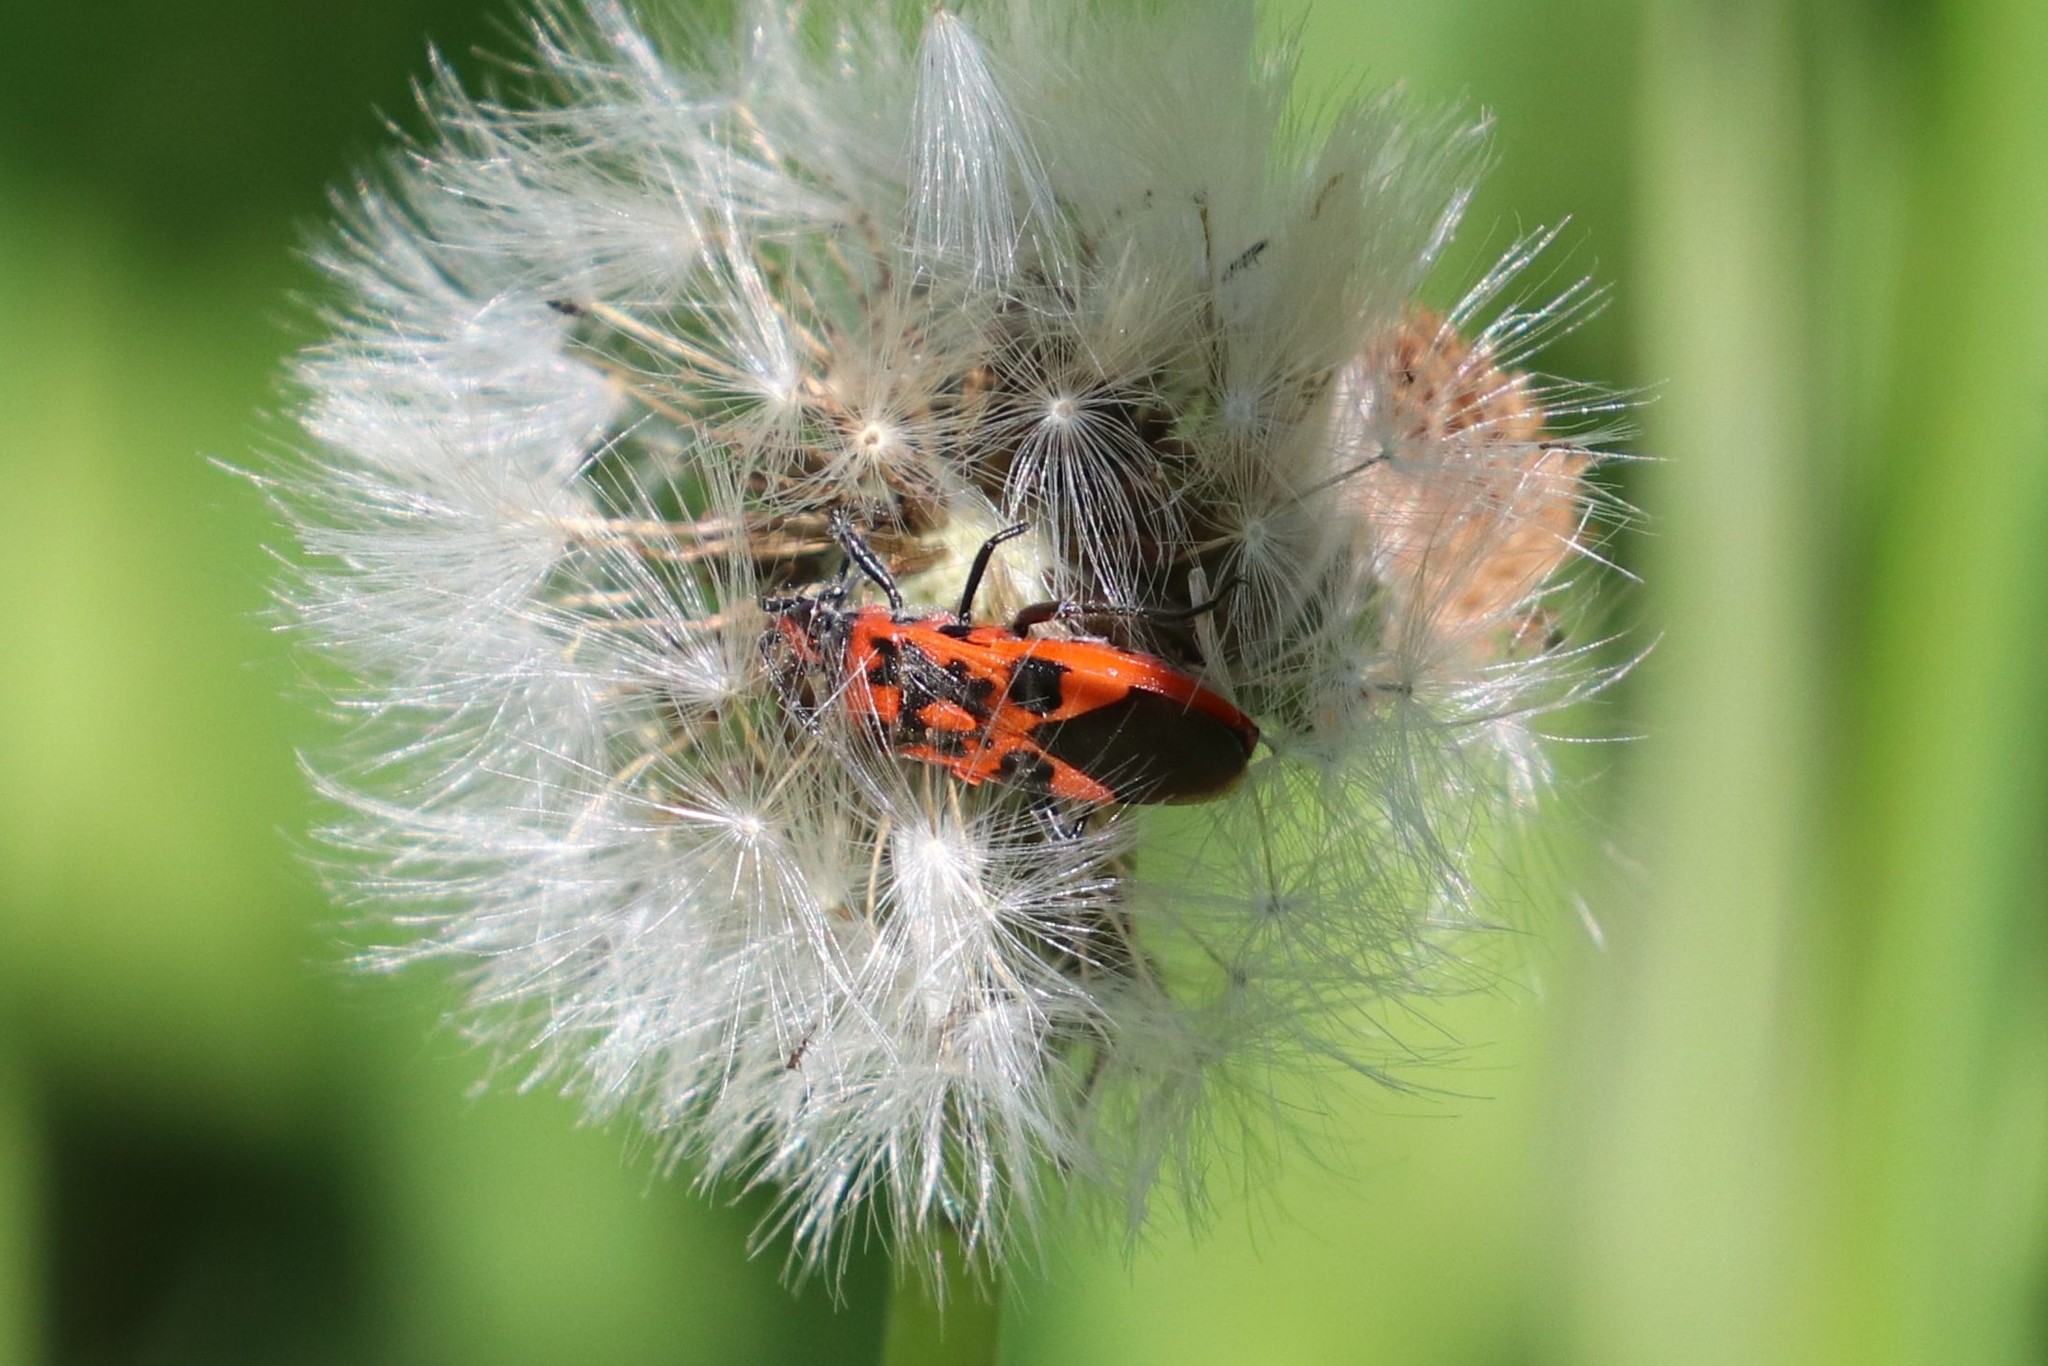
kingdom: Animalia
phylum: Arthropoda
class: Insecta
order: Hemiptera
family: Rhopalidae
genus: Corizus
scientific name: Corizus hyoscyami
